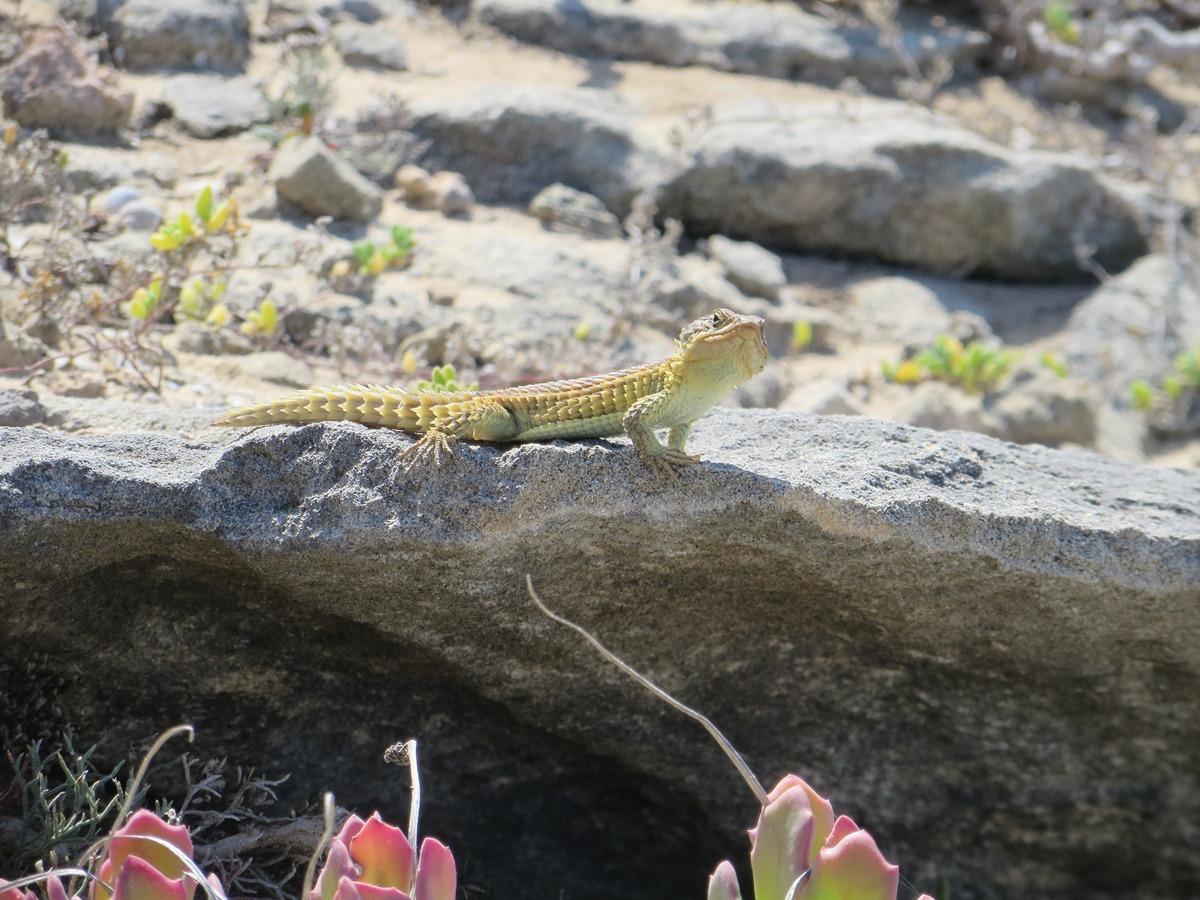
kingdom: Animalia
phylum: Chordata
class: Squamata
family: Cordylidae
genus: Cordylus
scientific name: Cordylus cordylus
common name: Cape girdled lizard
